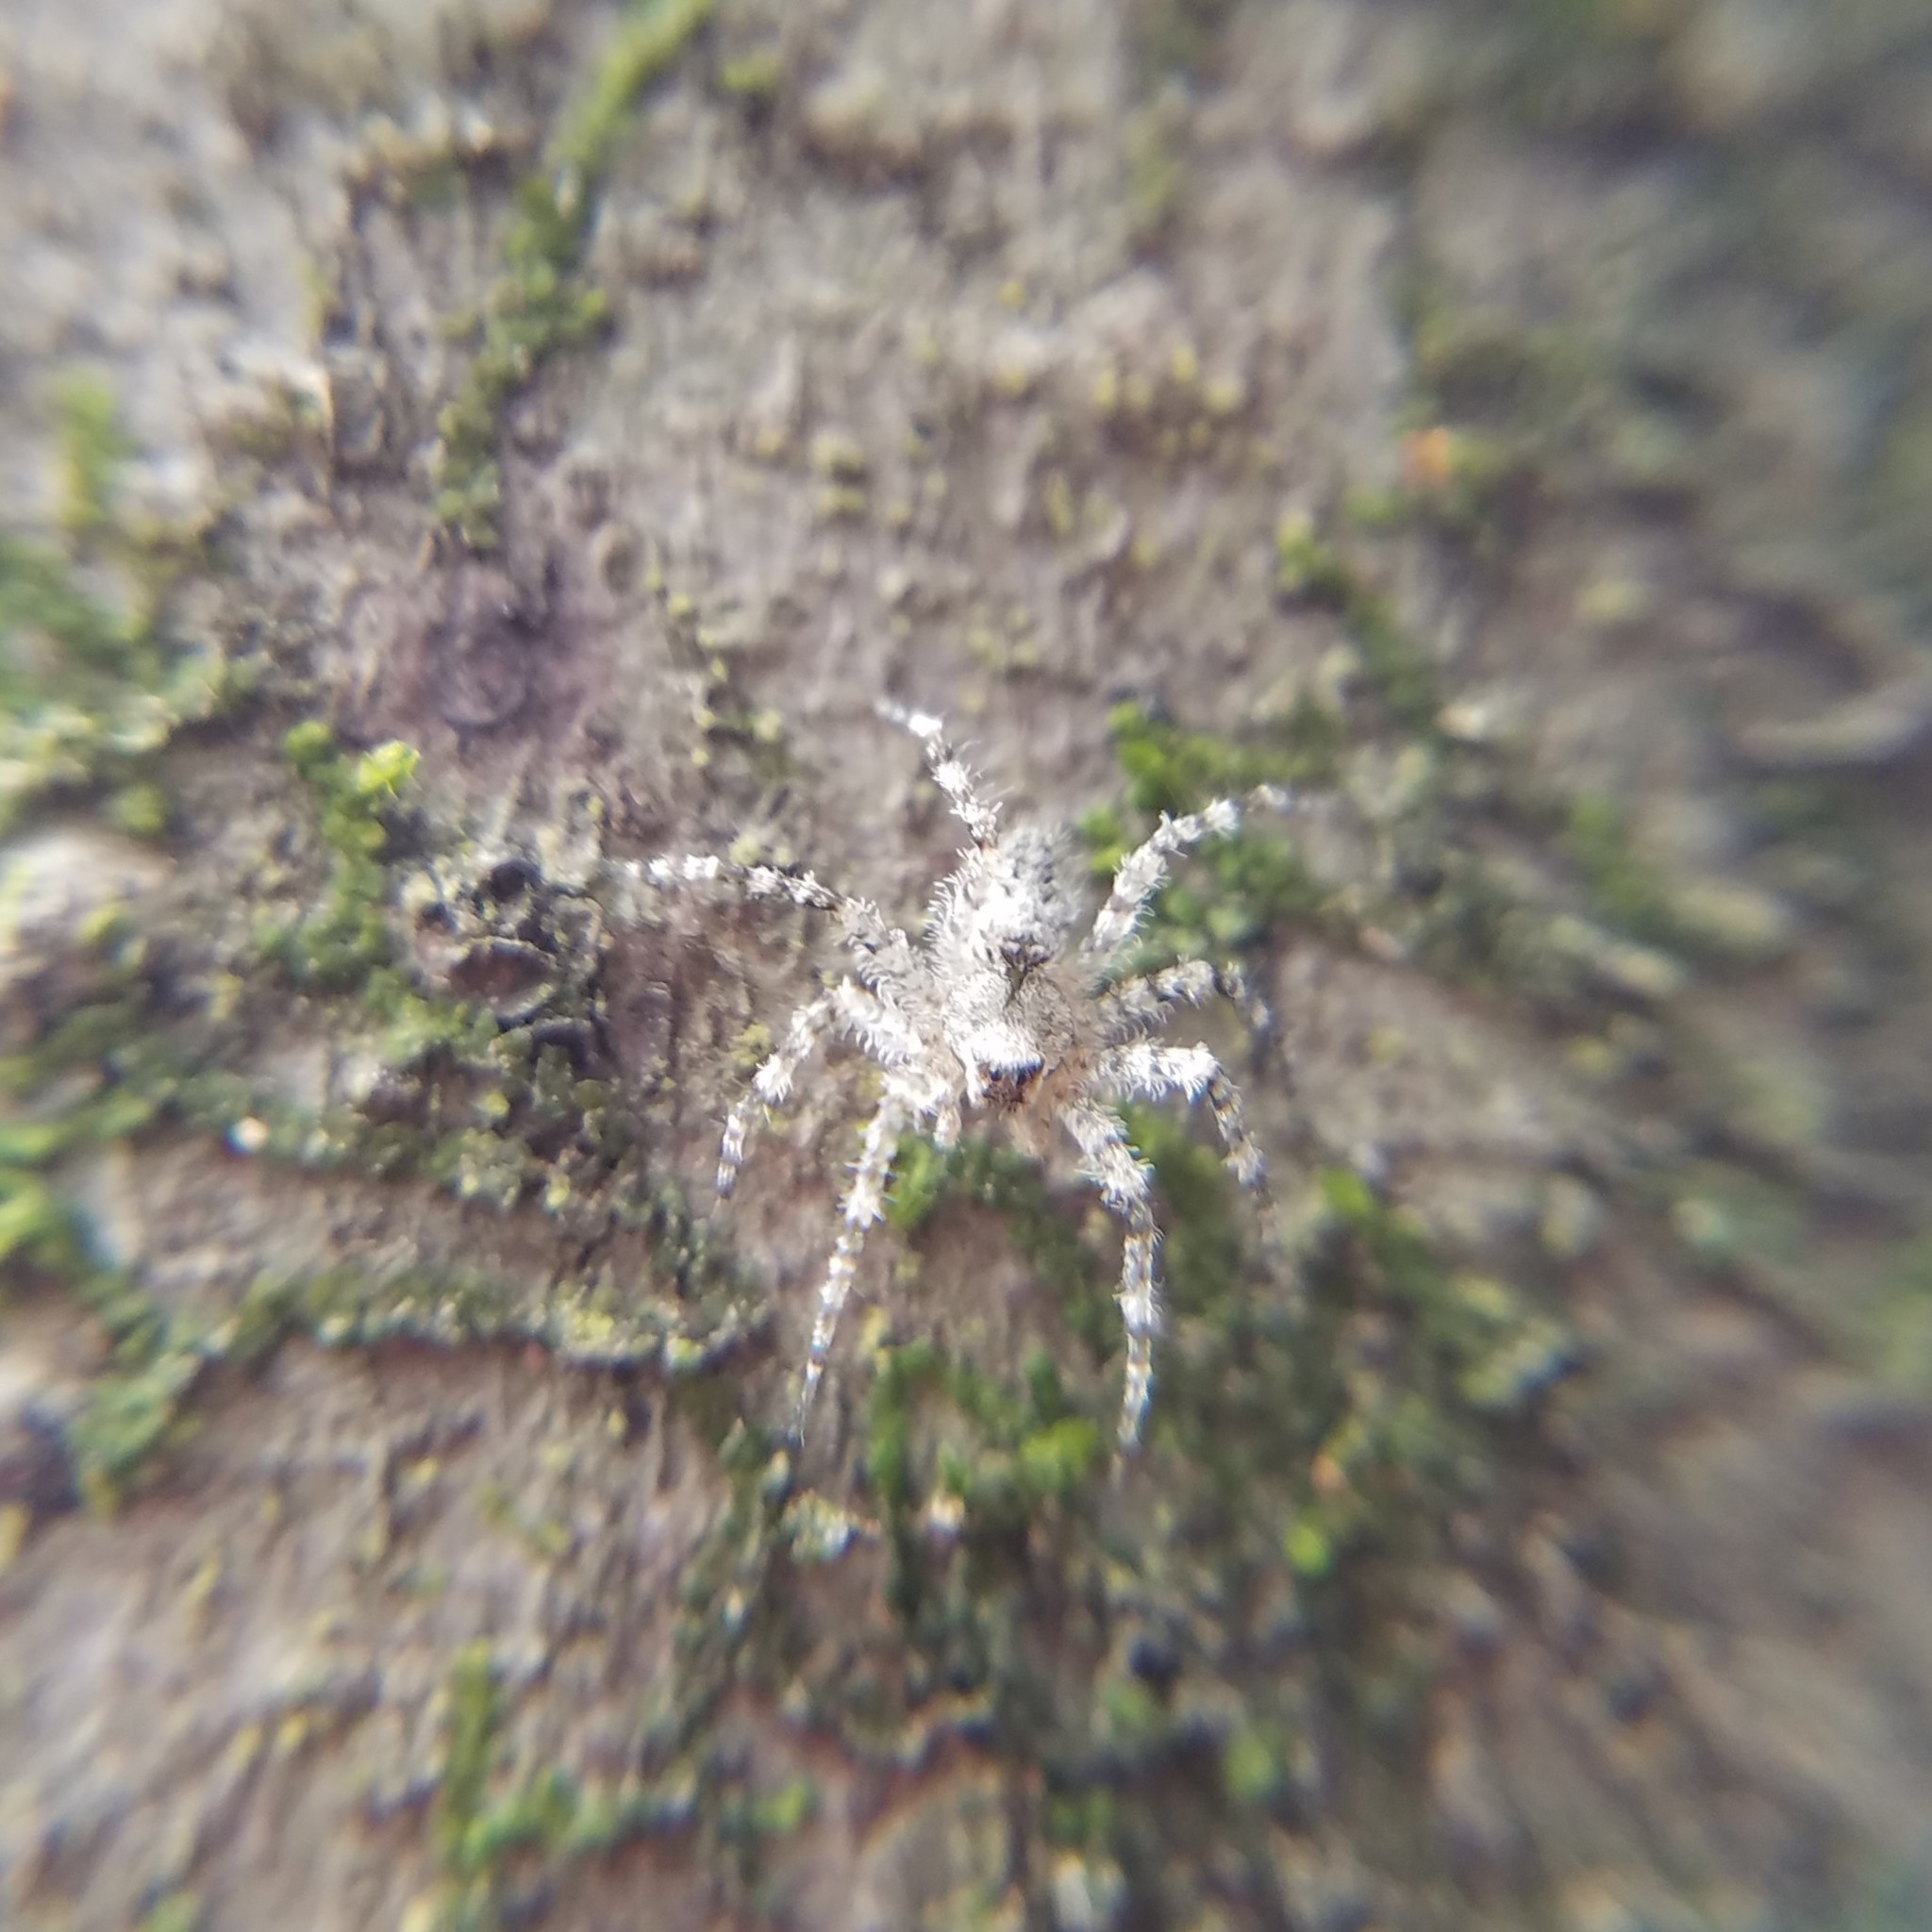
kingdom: Animalia
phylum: Arthropoda
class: Arachnida
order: Araneae
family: Pisauridae
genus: Dolomedes
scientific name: Dolomedes albineus
